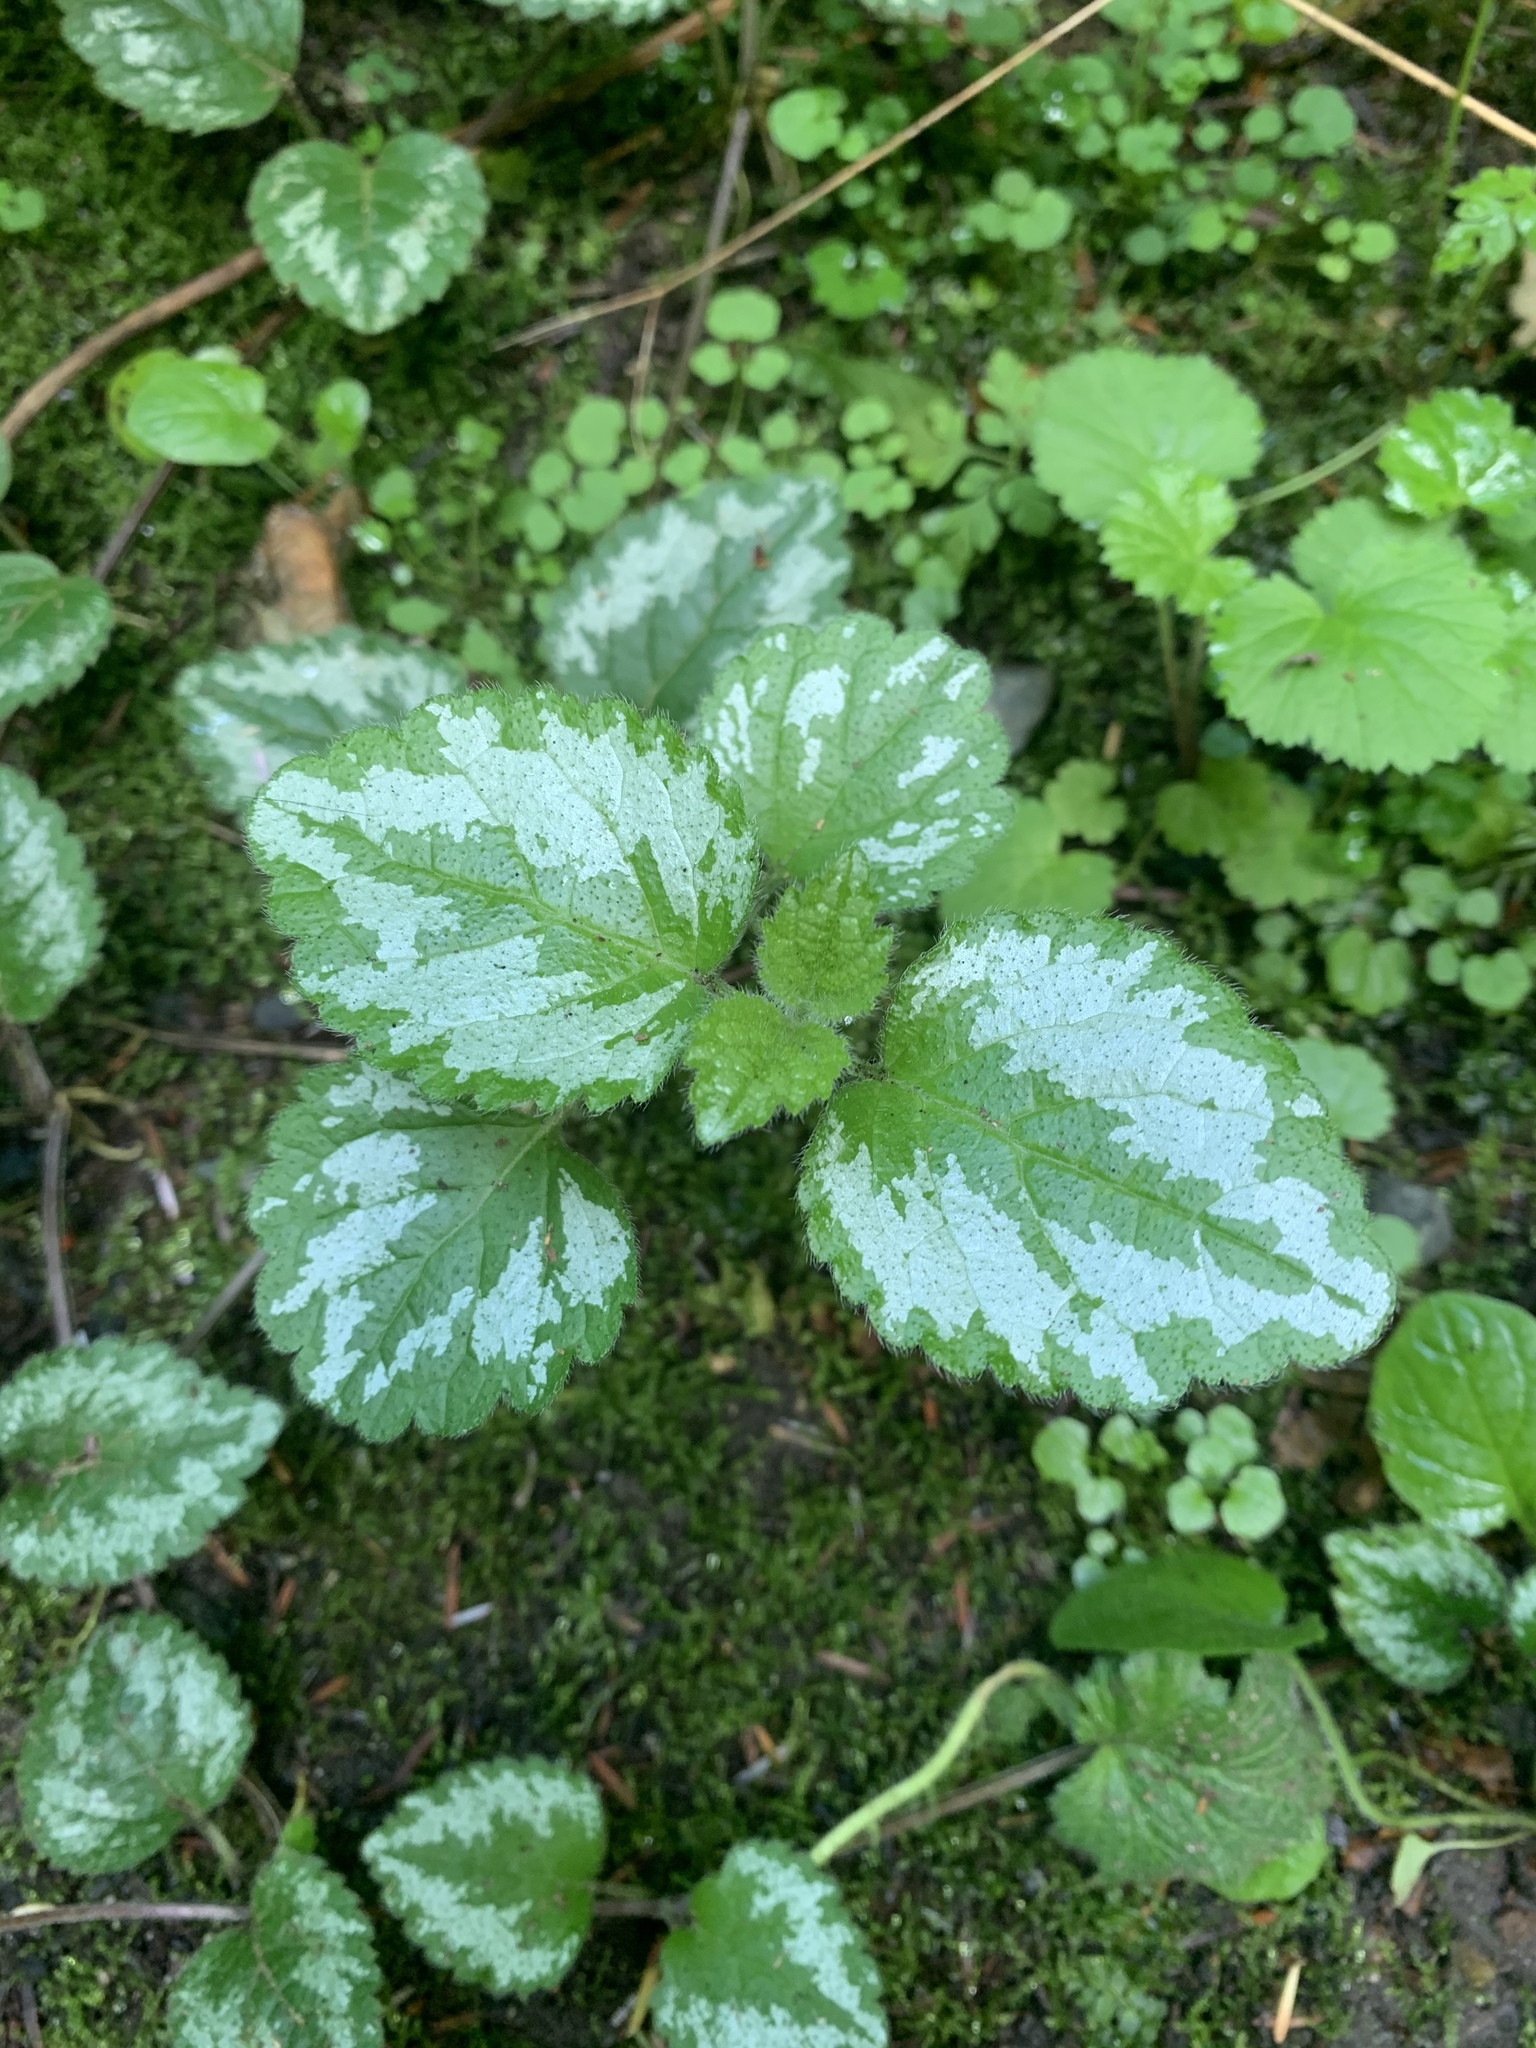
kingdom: Plantae
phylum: Tracheophyta
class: Magnoliopsida
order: Lamiales
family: Lamiaceae
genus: Lamium
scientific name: Lamium galeobdolon
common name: Yellow archangel
